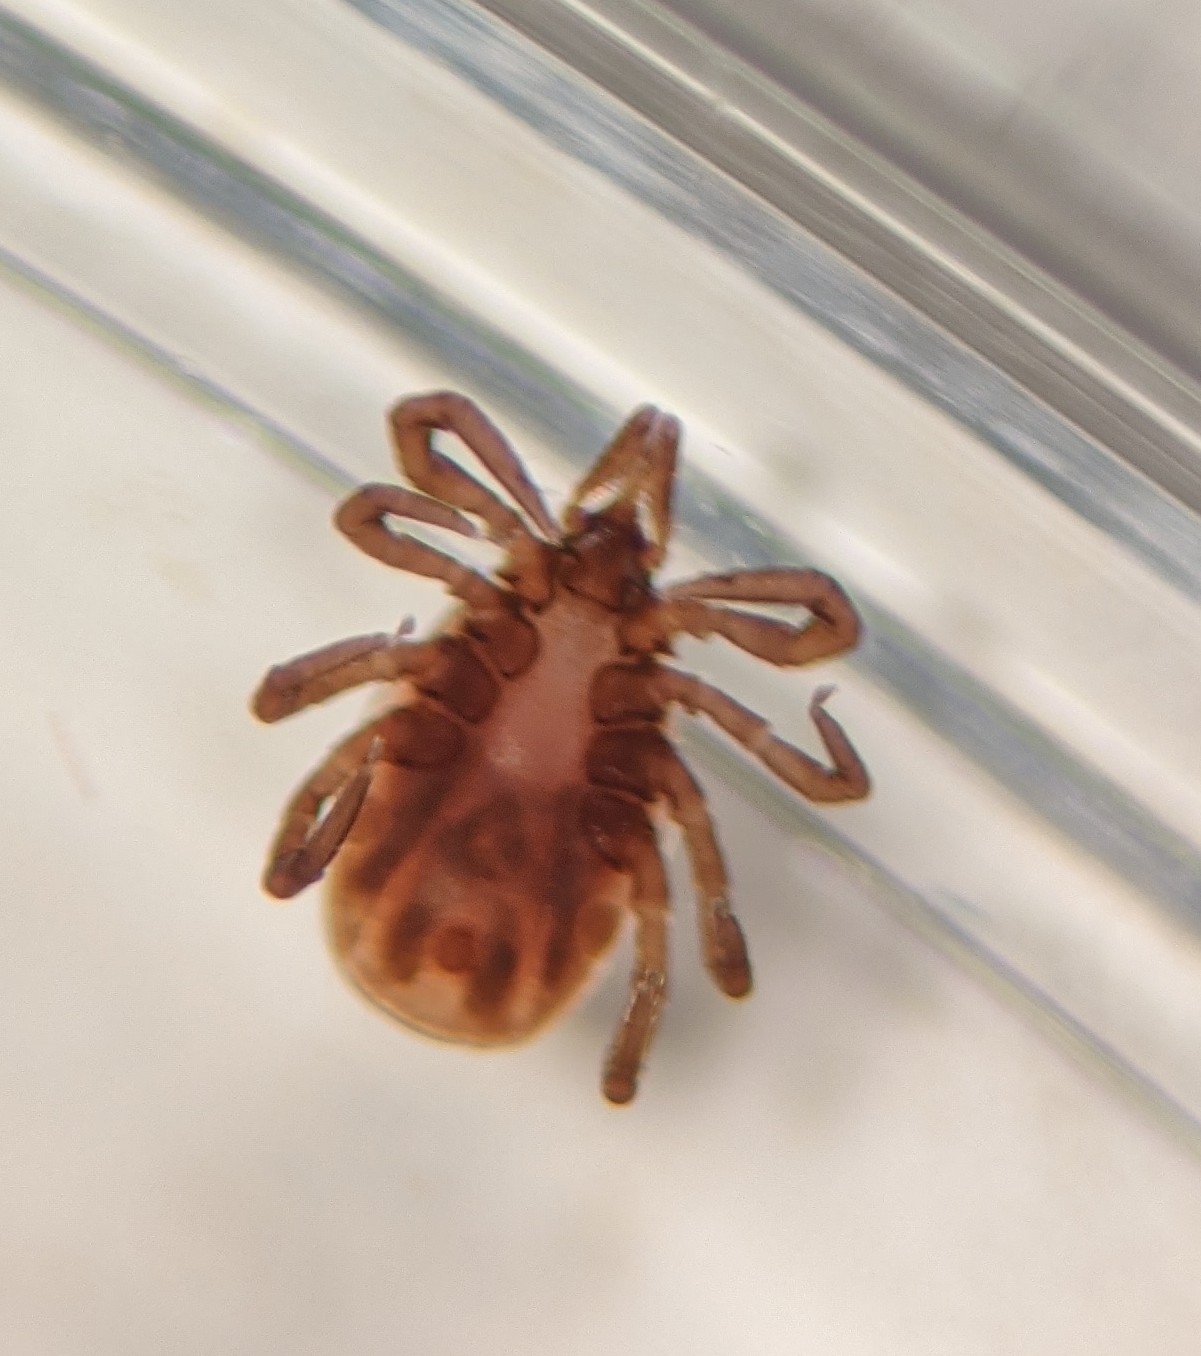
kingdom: Animalia
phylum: Arthropoda
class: Arachnida
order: Ixodida
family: Ixodidae
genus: Ixodes
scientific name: Ixodes scapularis
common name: Black legged tick
